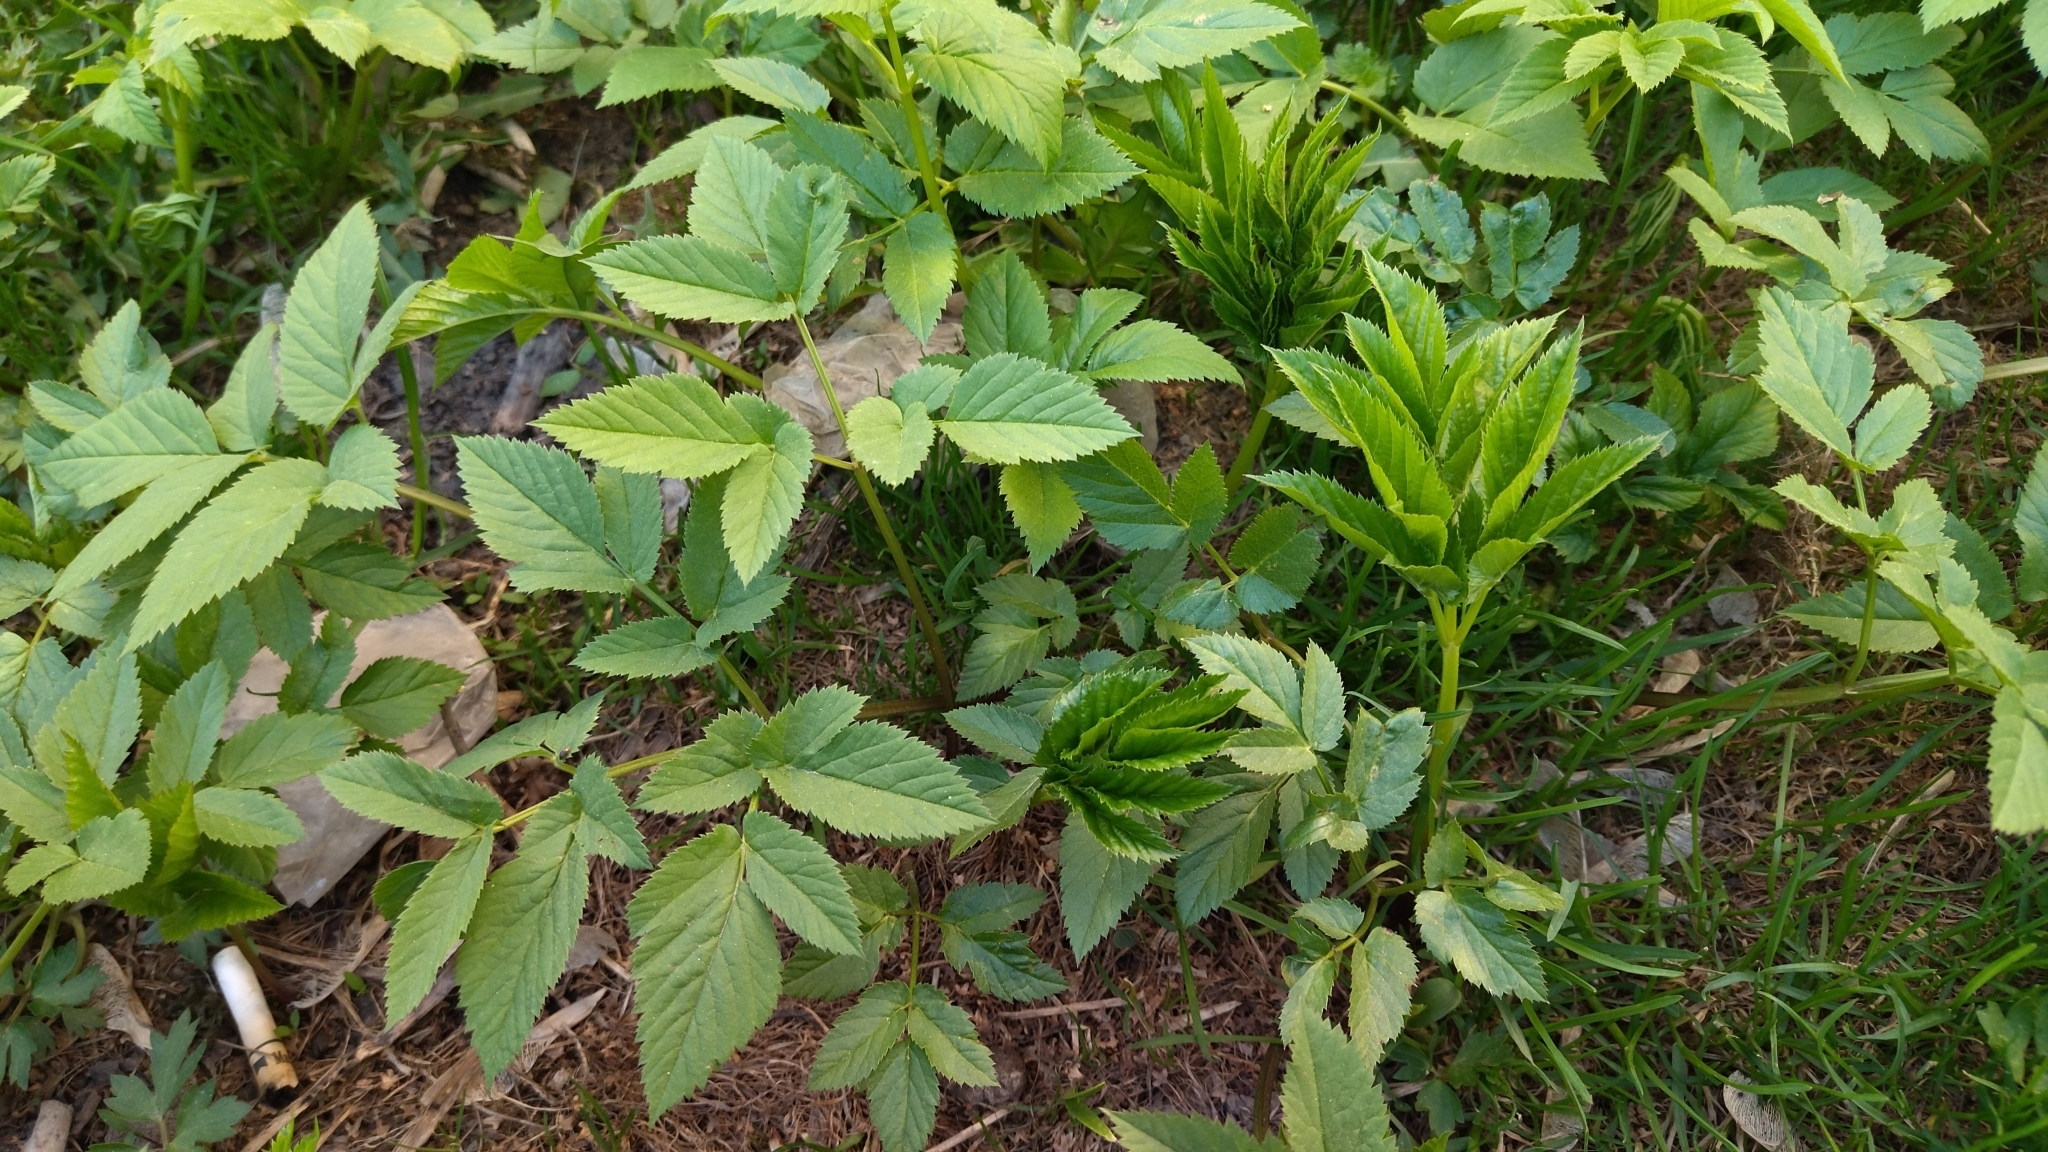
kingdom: Plantae
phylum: Tracheophyta
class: Magnoliopsida
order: Apiales
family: Apiaceae
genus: Aegopodium
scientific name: Aegopodium podagraria
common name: Ground-elder
